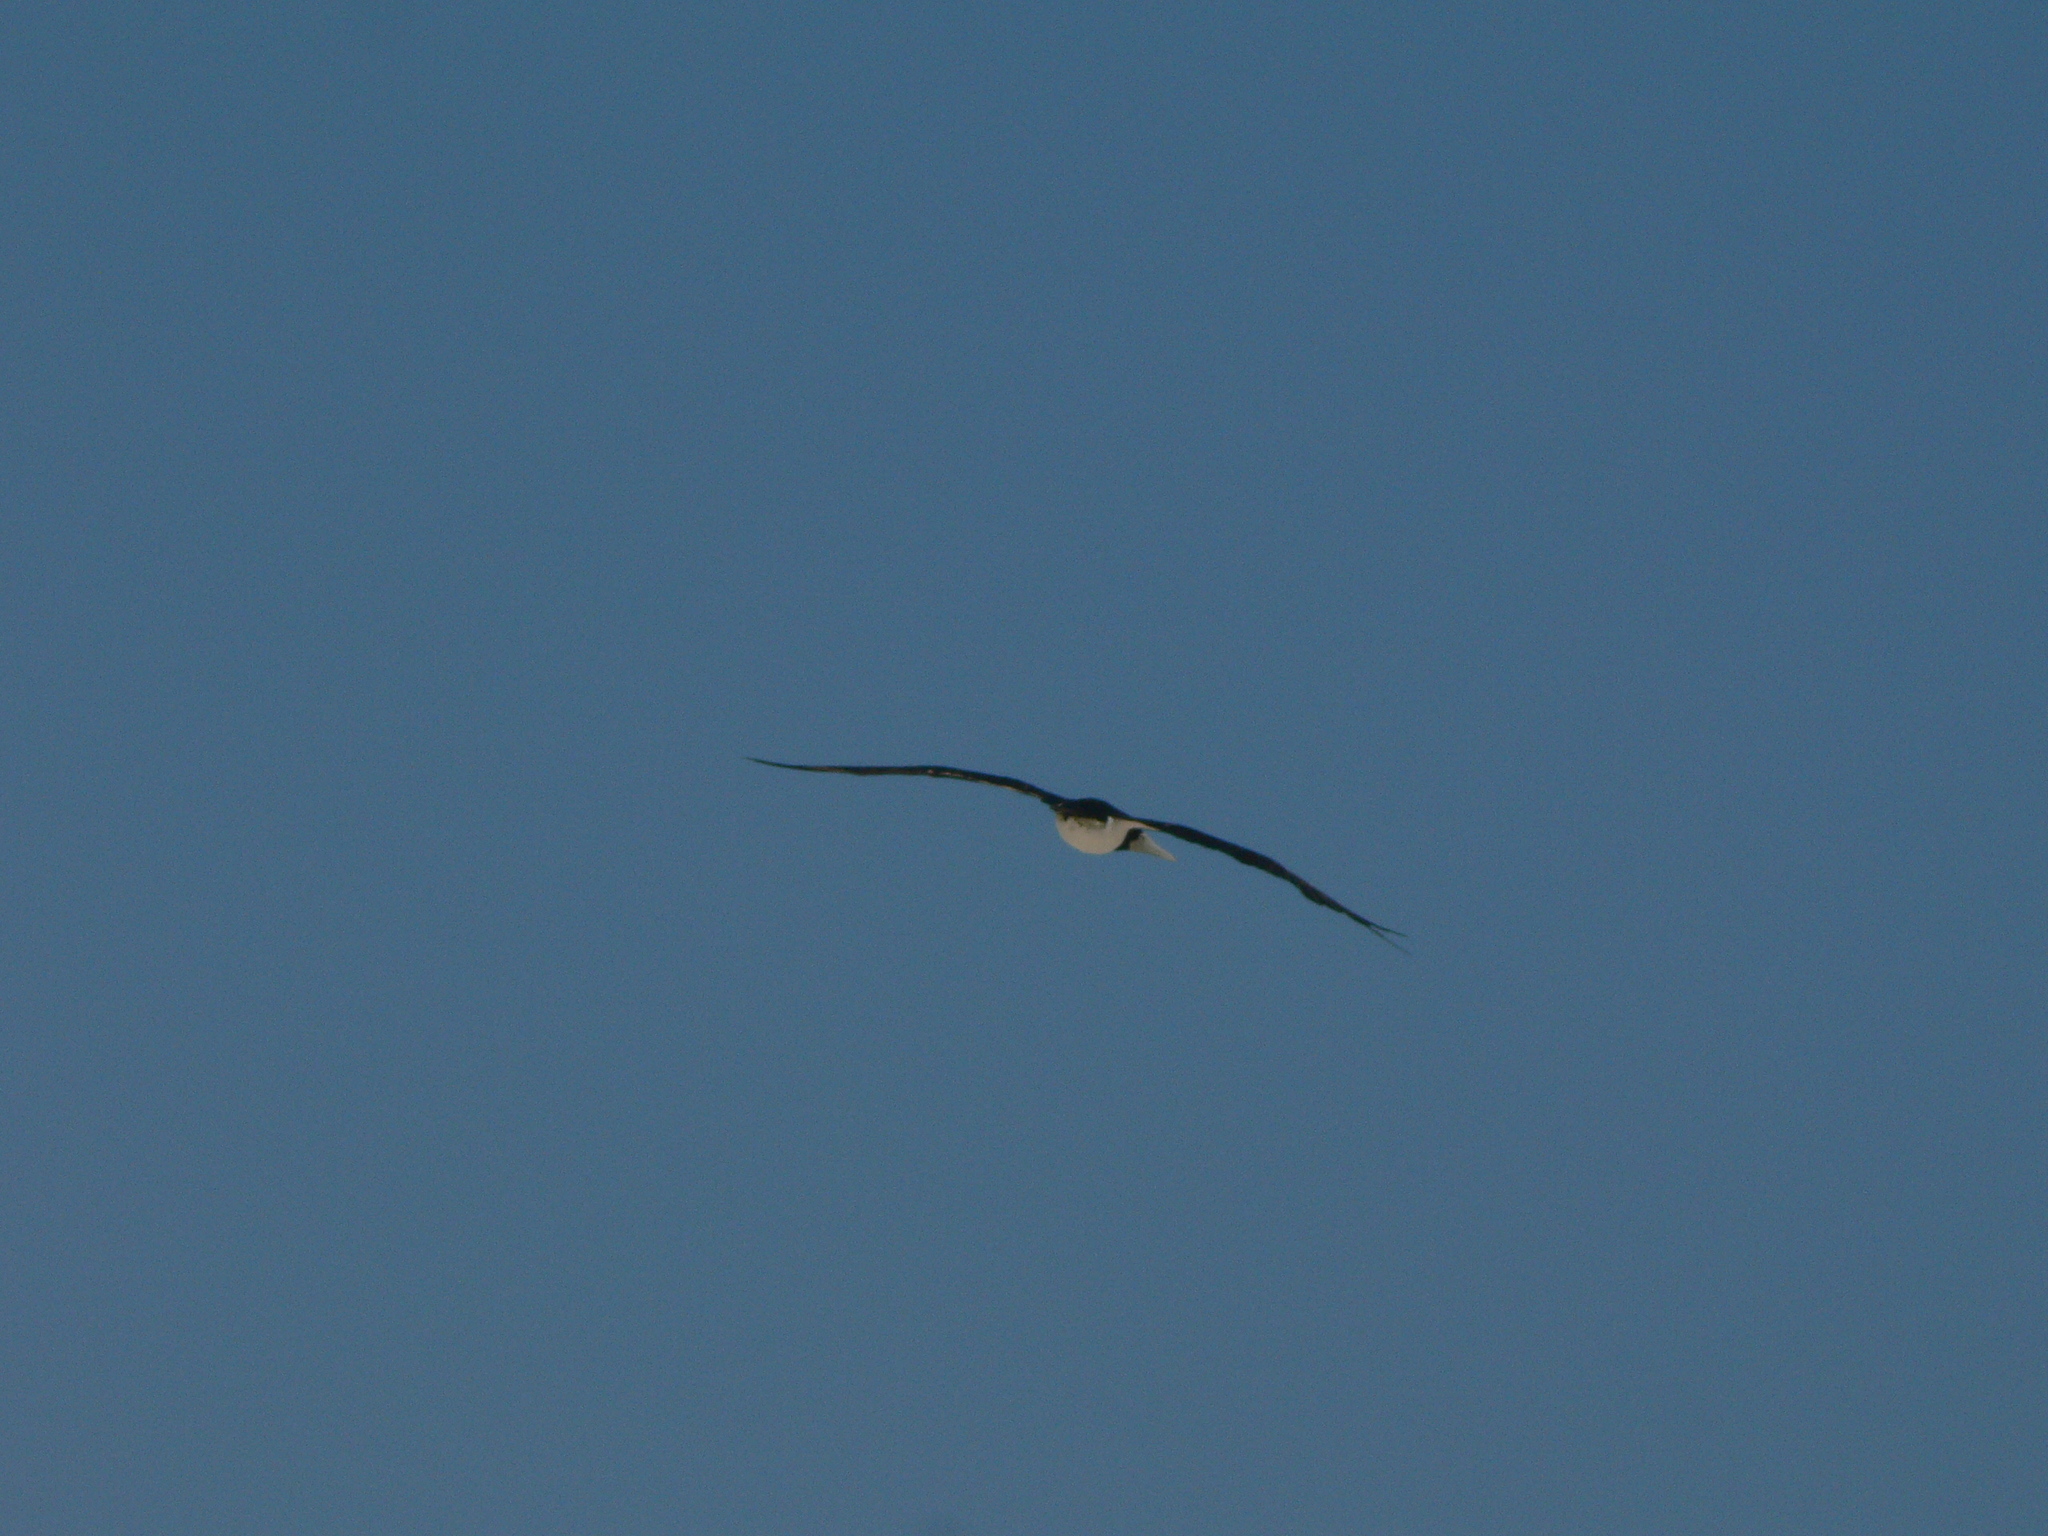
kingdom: Animalia
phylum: Chordata
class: Aves
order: Suliformes
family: Sulidae
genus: Sula
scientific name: Sula leucogaster
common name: Brown booby
